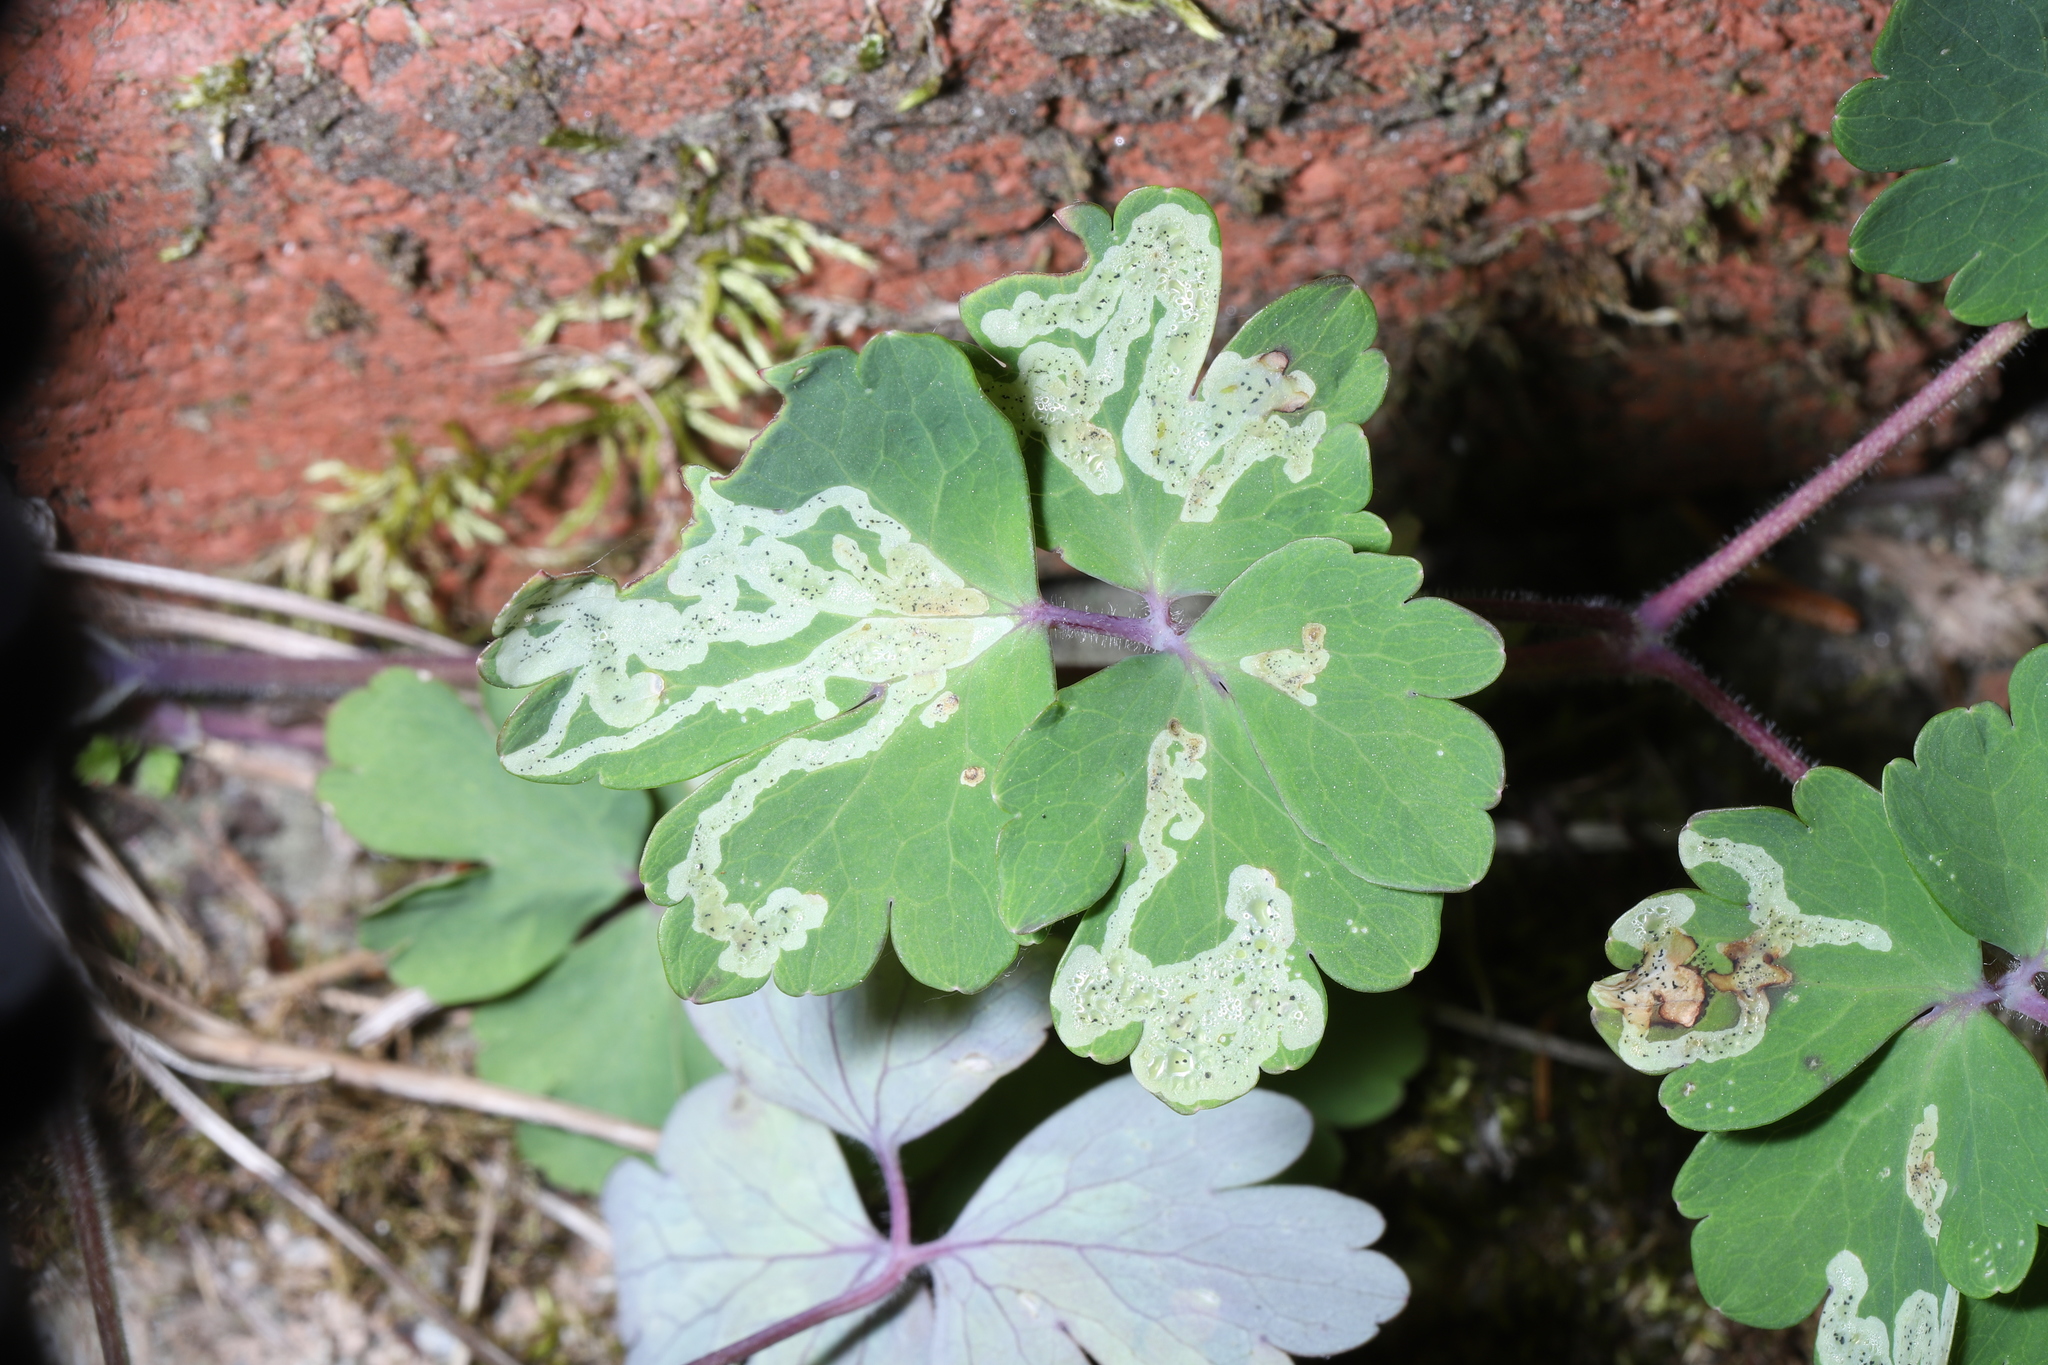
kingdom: Animalia
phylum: Arthropoda
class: Insecta
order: Diptera
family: Agromyzidae
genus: Phytomyza
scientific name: Phytomyza
